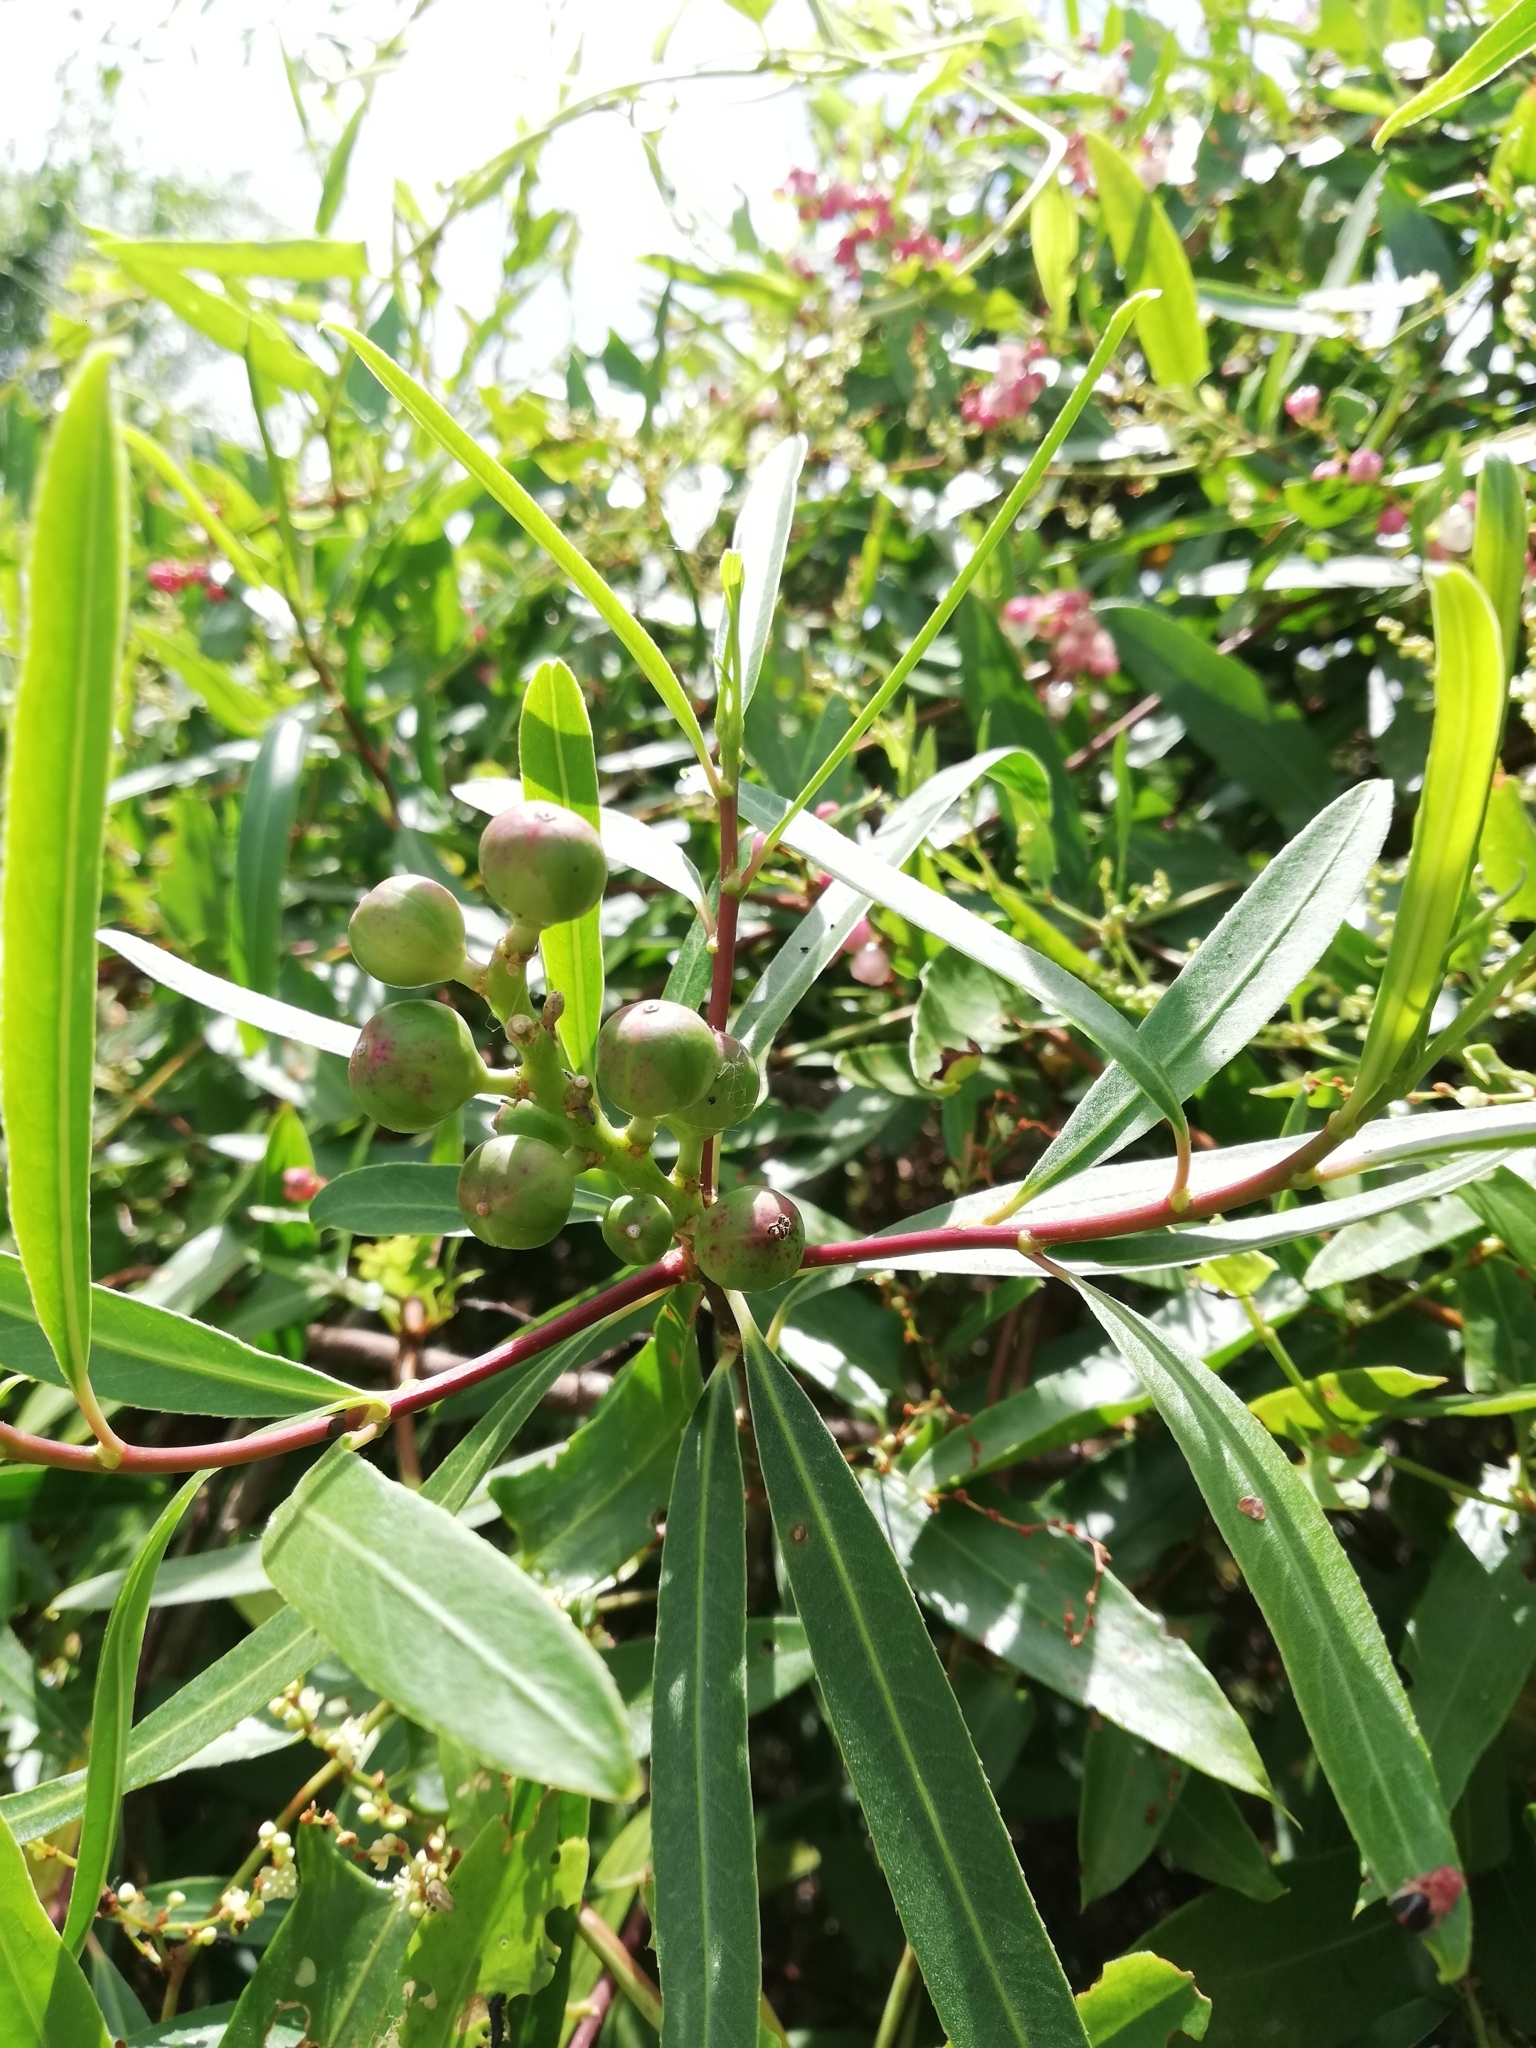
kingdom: Plantae
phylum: Tracheophyta
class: Magnoliopsida
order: Malpighiales
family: Euphorbiaceae
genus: Sapium
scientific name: Sapium haematospermum
